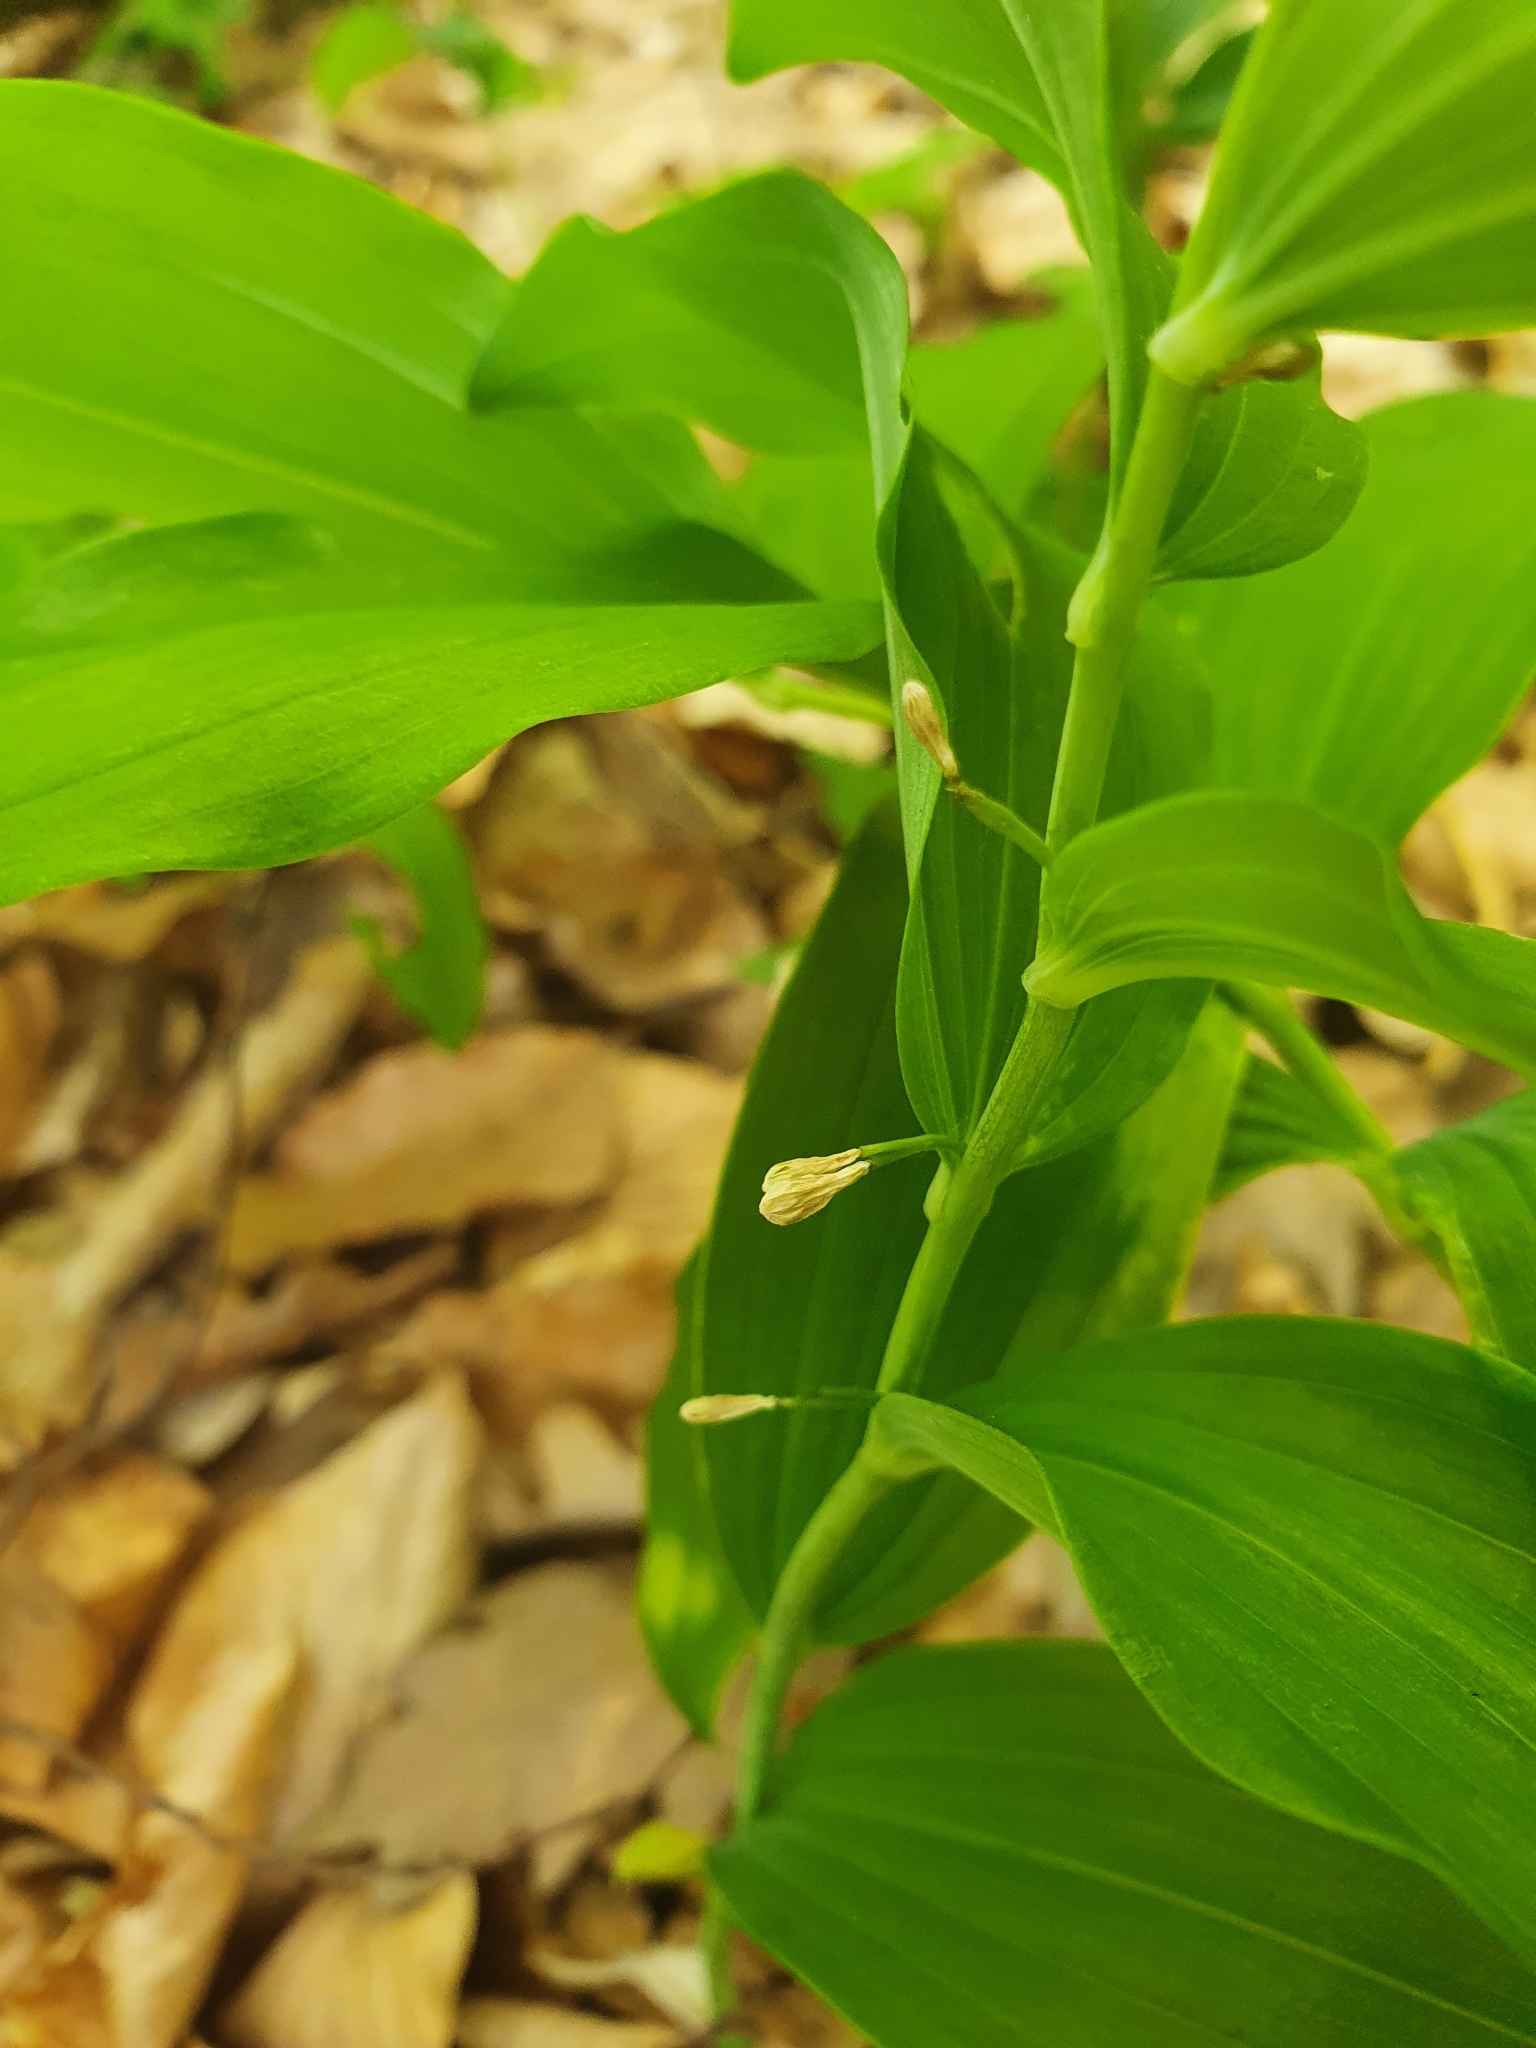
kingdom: Plantae
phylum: Tracheophyta
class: Liliopsida
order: Asparagales
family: Asparagaceae
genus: Polygonatum
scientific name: Polygonatum multiflorum
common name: Solomon's-seal
